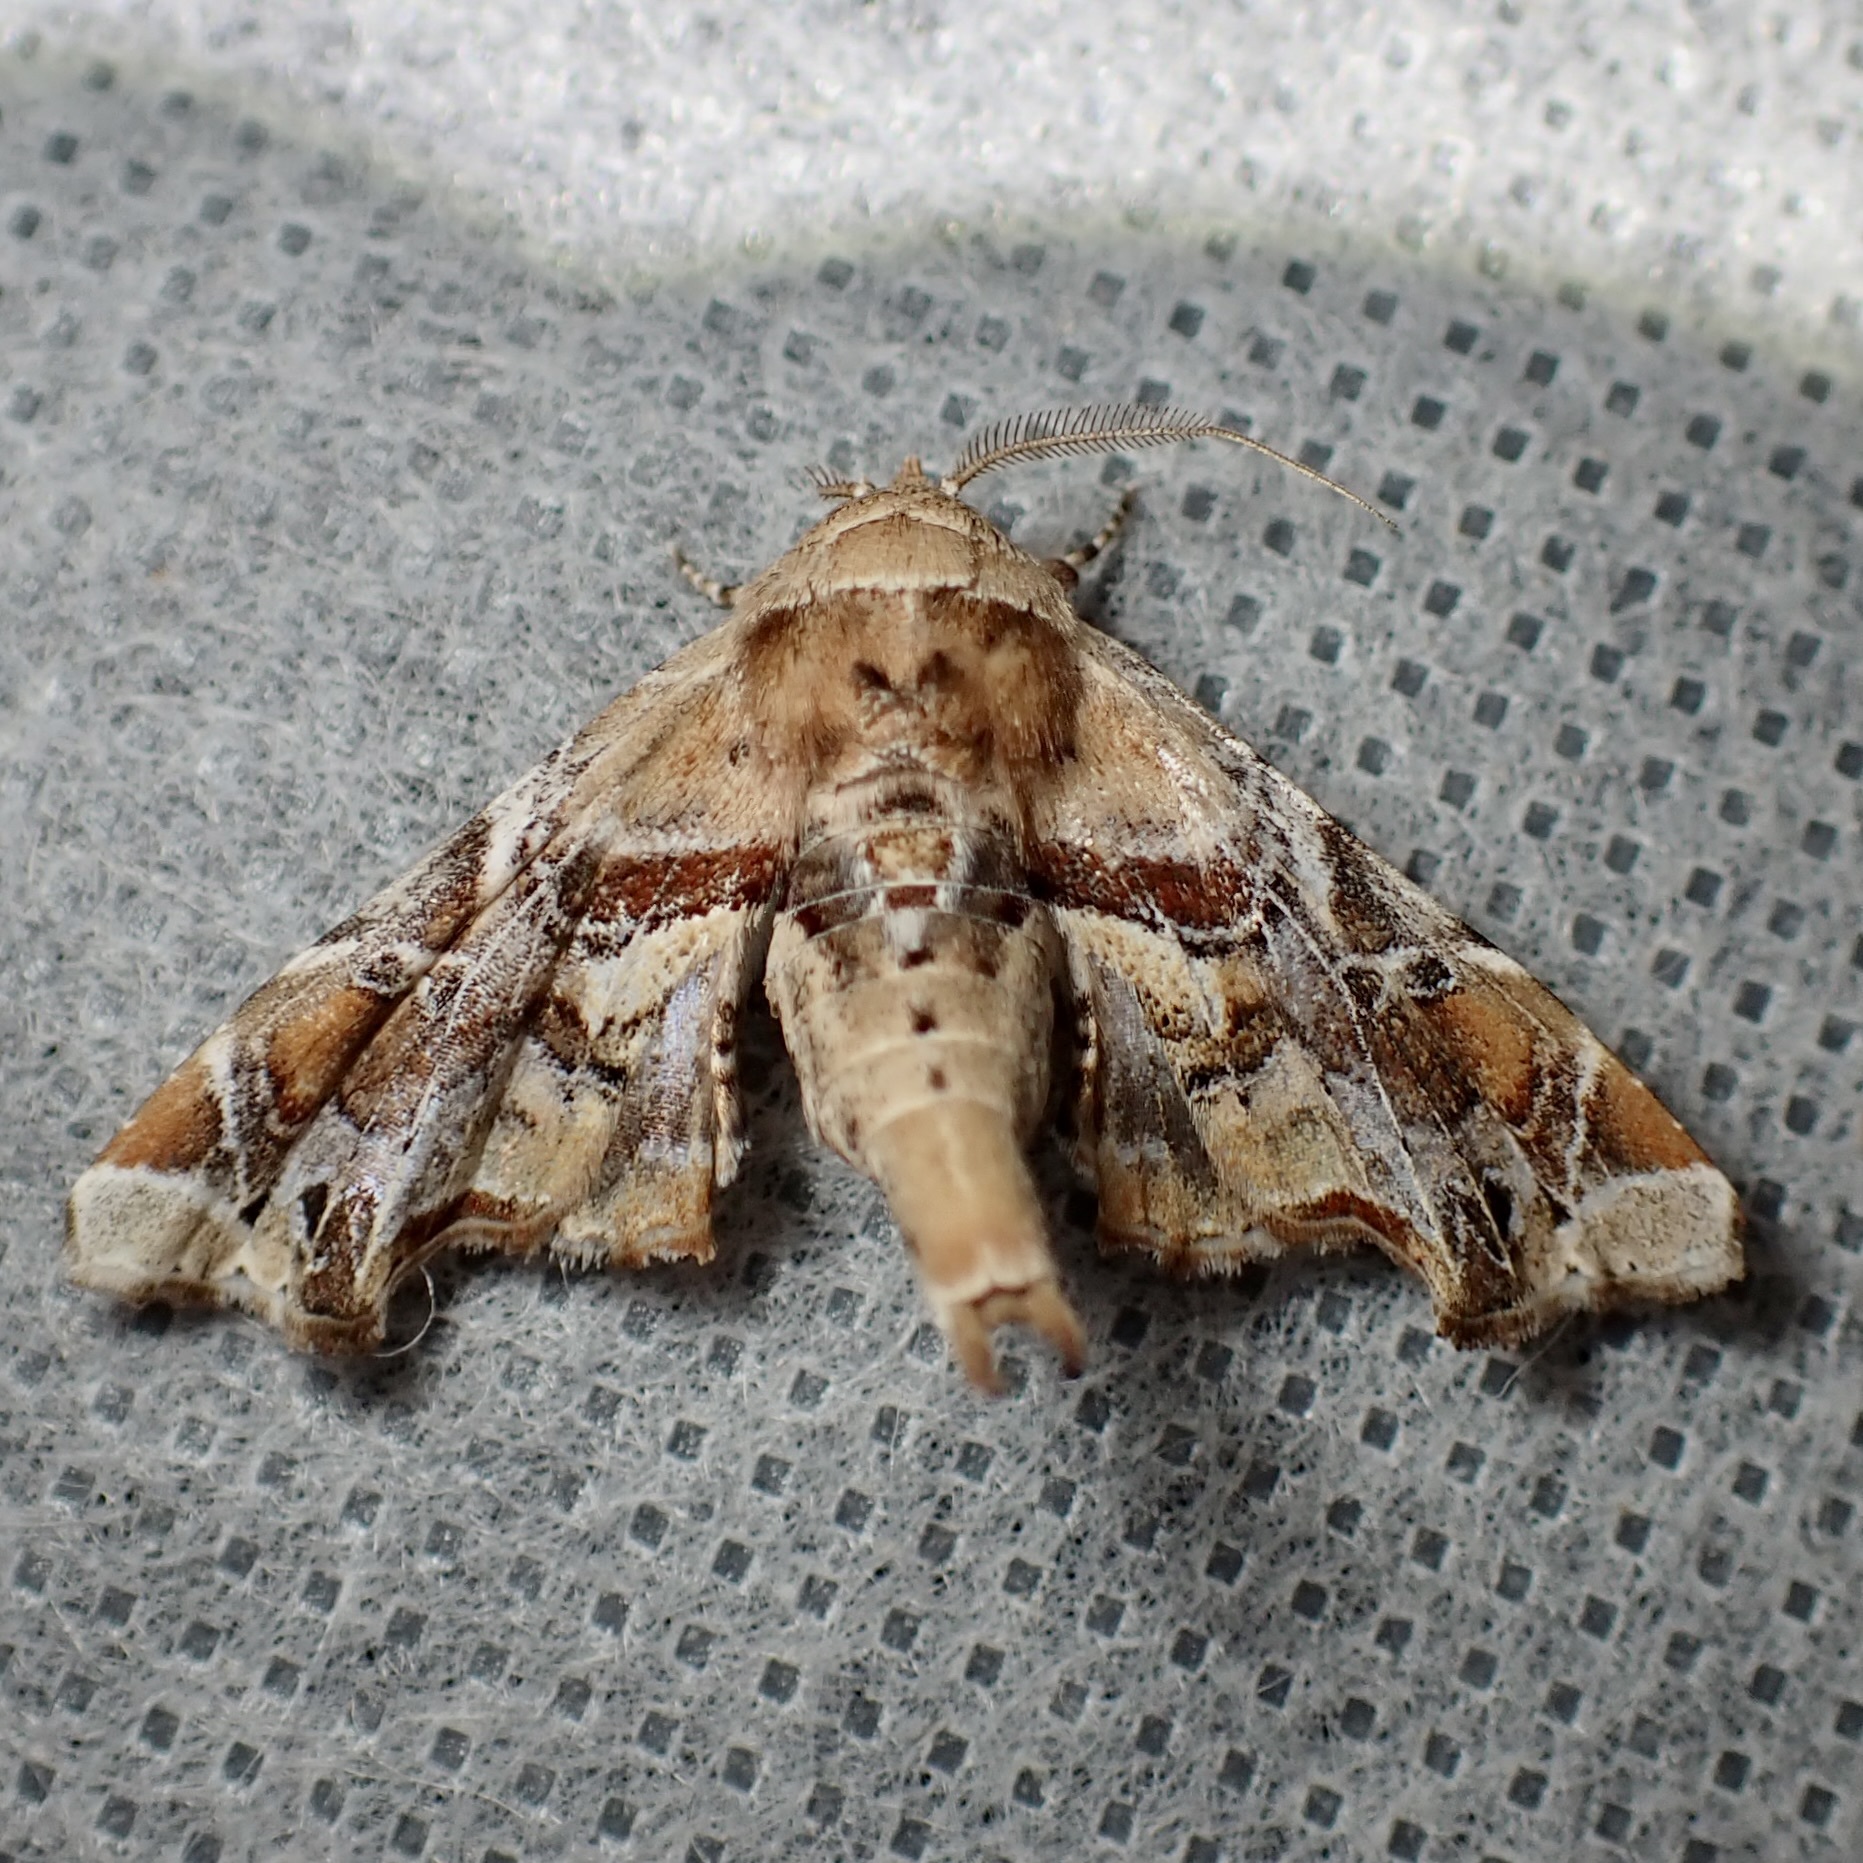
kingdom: Animalia
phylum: Arthropoda
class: Insecta
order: Lepidoptera
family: Euteliidae
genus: Eutelia
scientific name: Eutelia furcata
